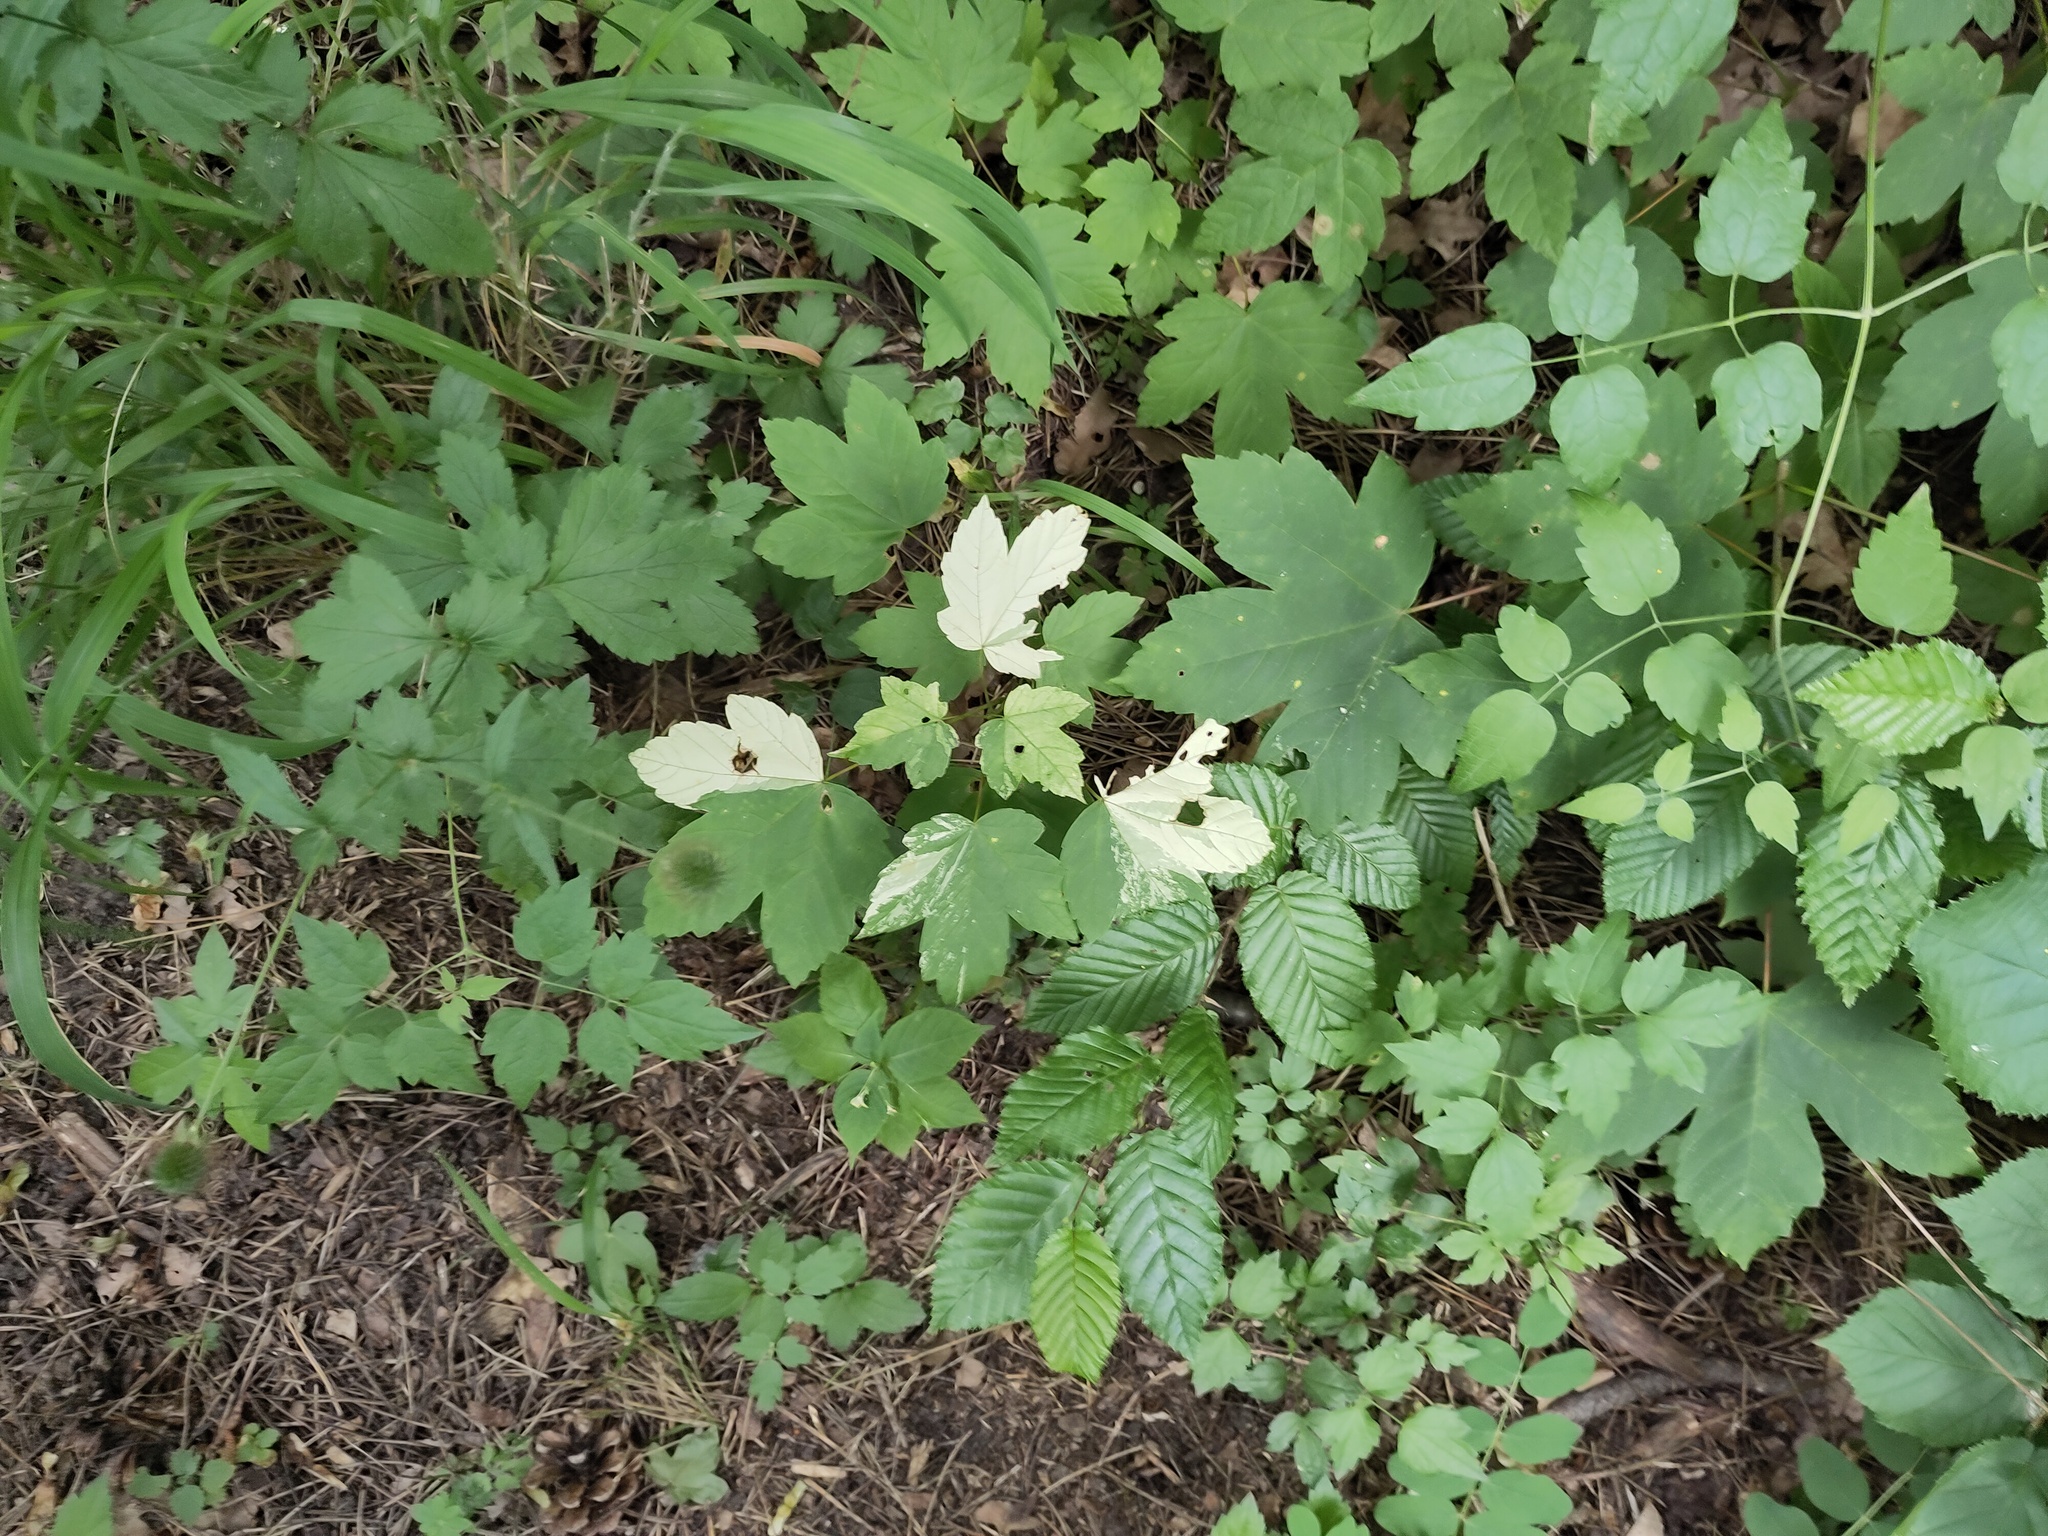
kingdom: Plantae
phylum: Tracheophyta
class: Magnoliopsida
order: Ranunculales
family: Ranunculaceae
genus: Clematis
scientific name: Clematis vitalba
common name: Evergreen clematis
